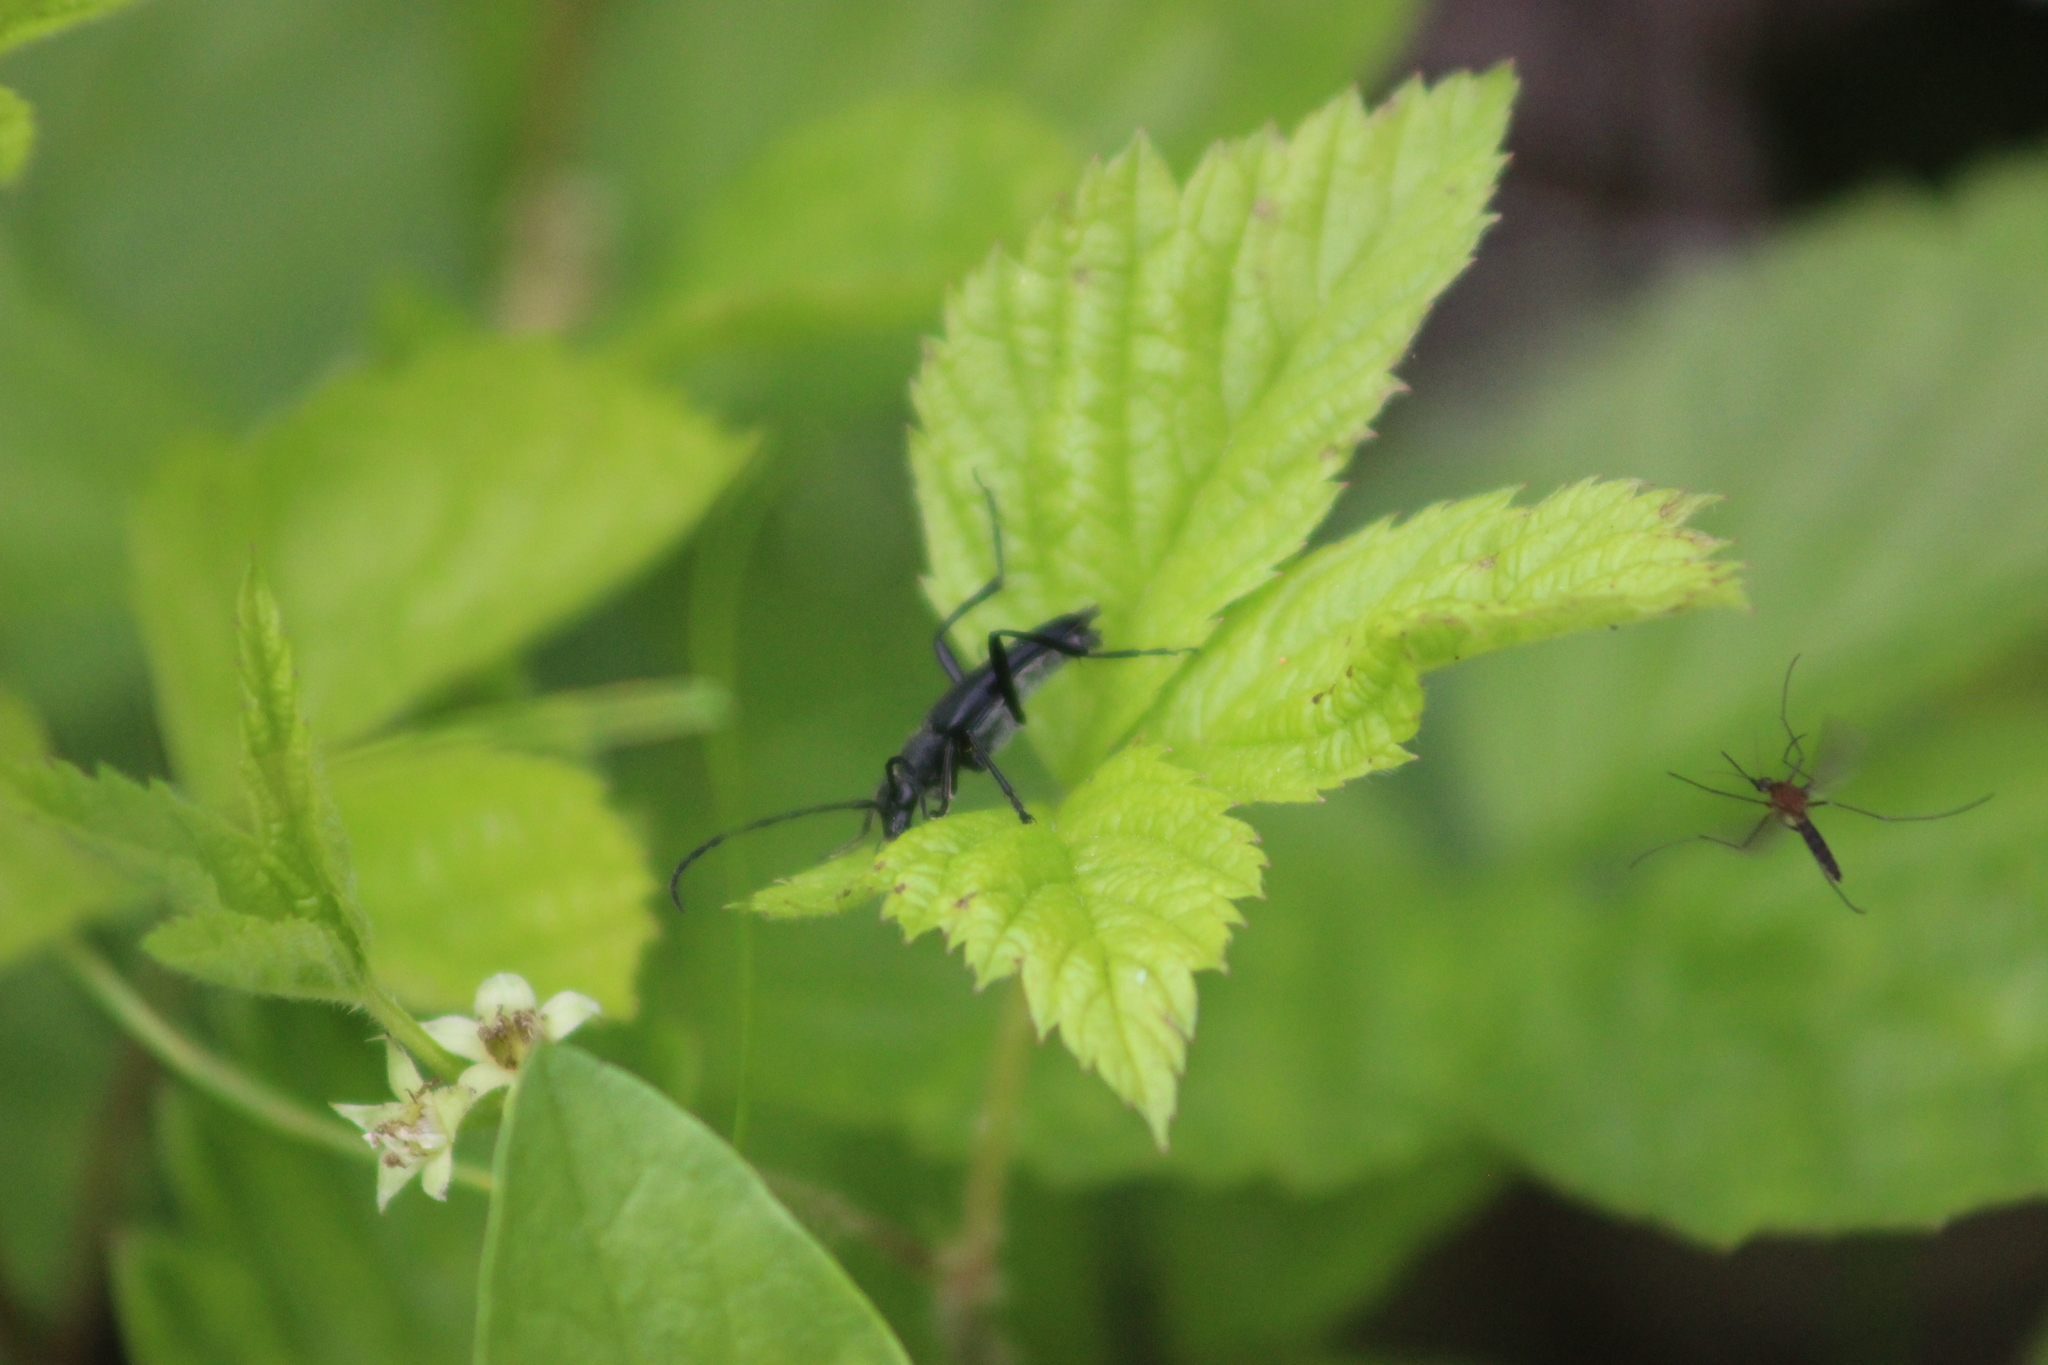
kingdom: Animalia
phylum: Arthropoda
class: Insecta
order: Coleoptera
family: Cerambycidae
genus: Leptura
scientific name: Leptura aethiops
